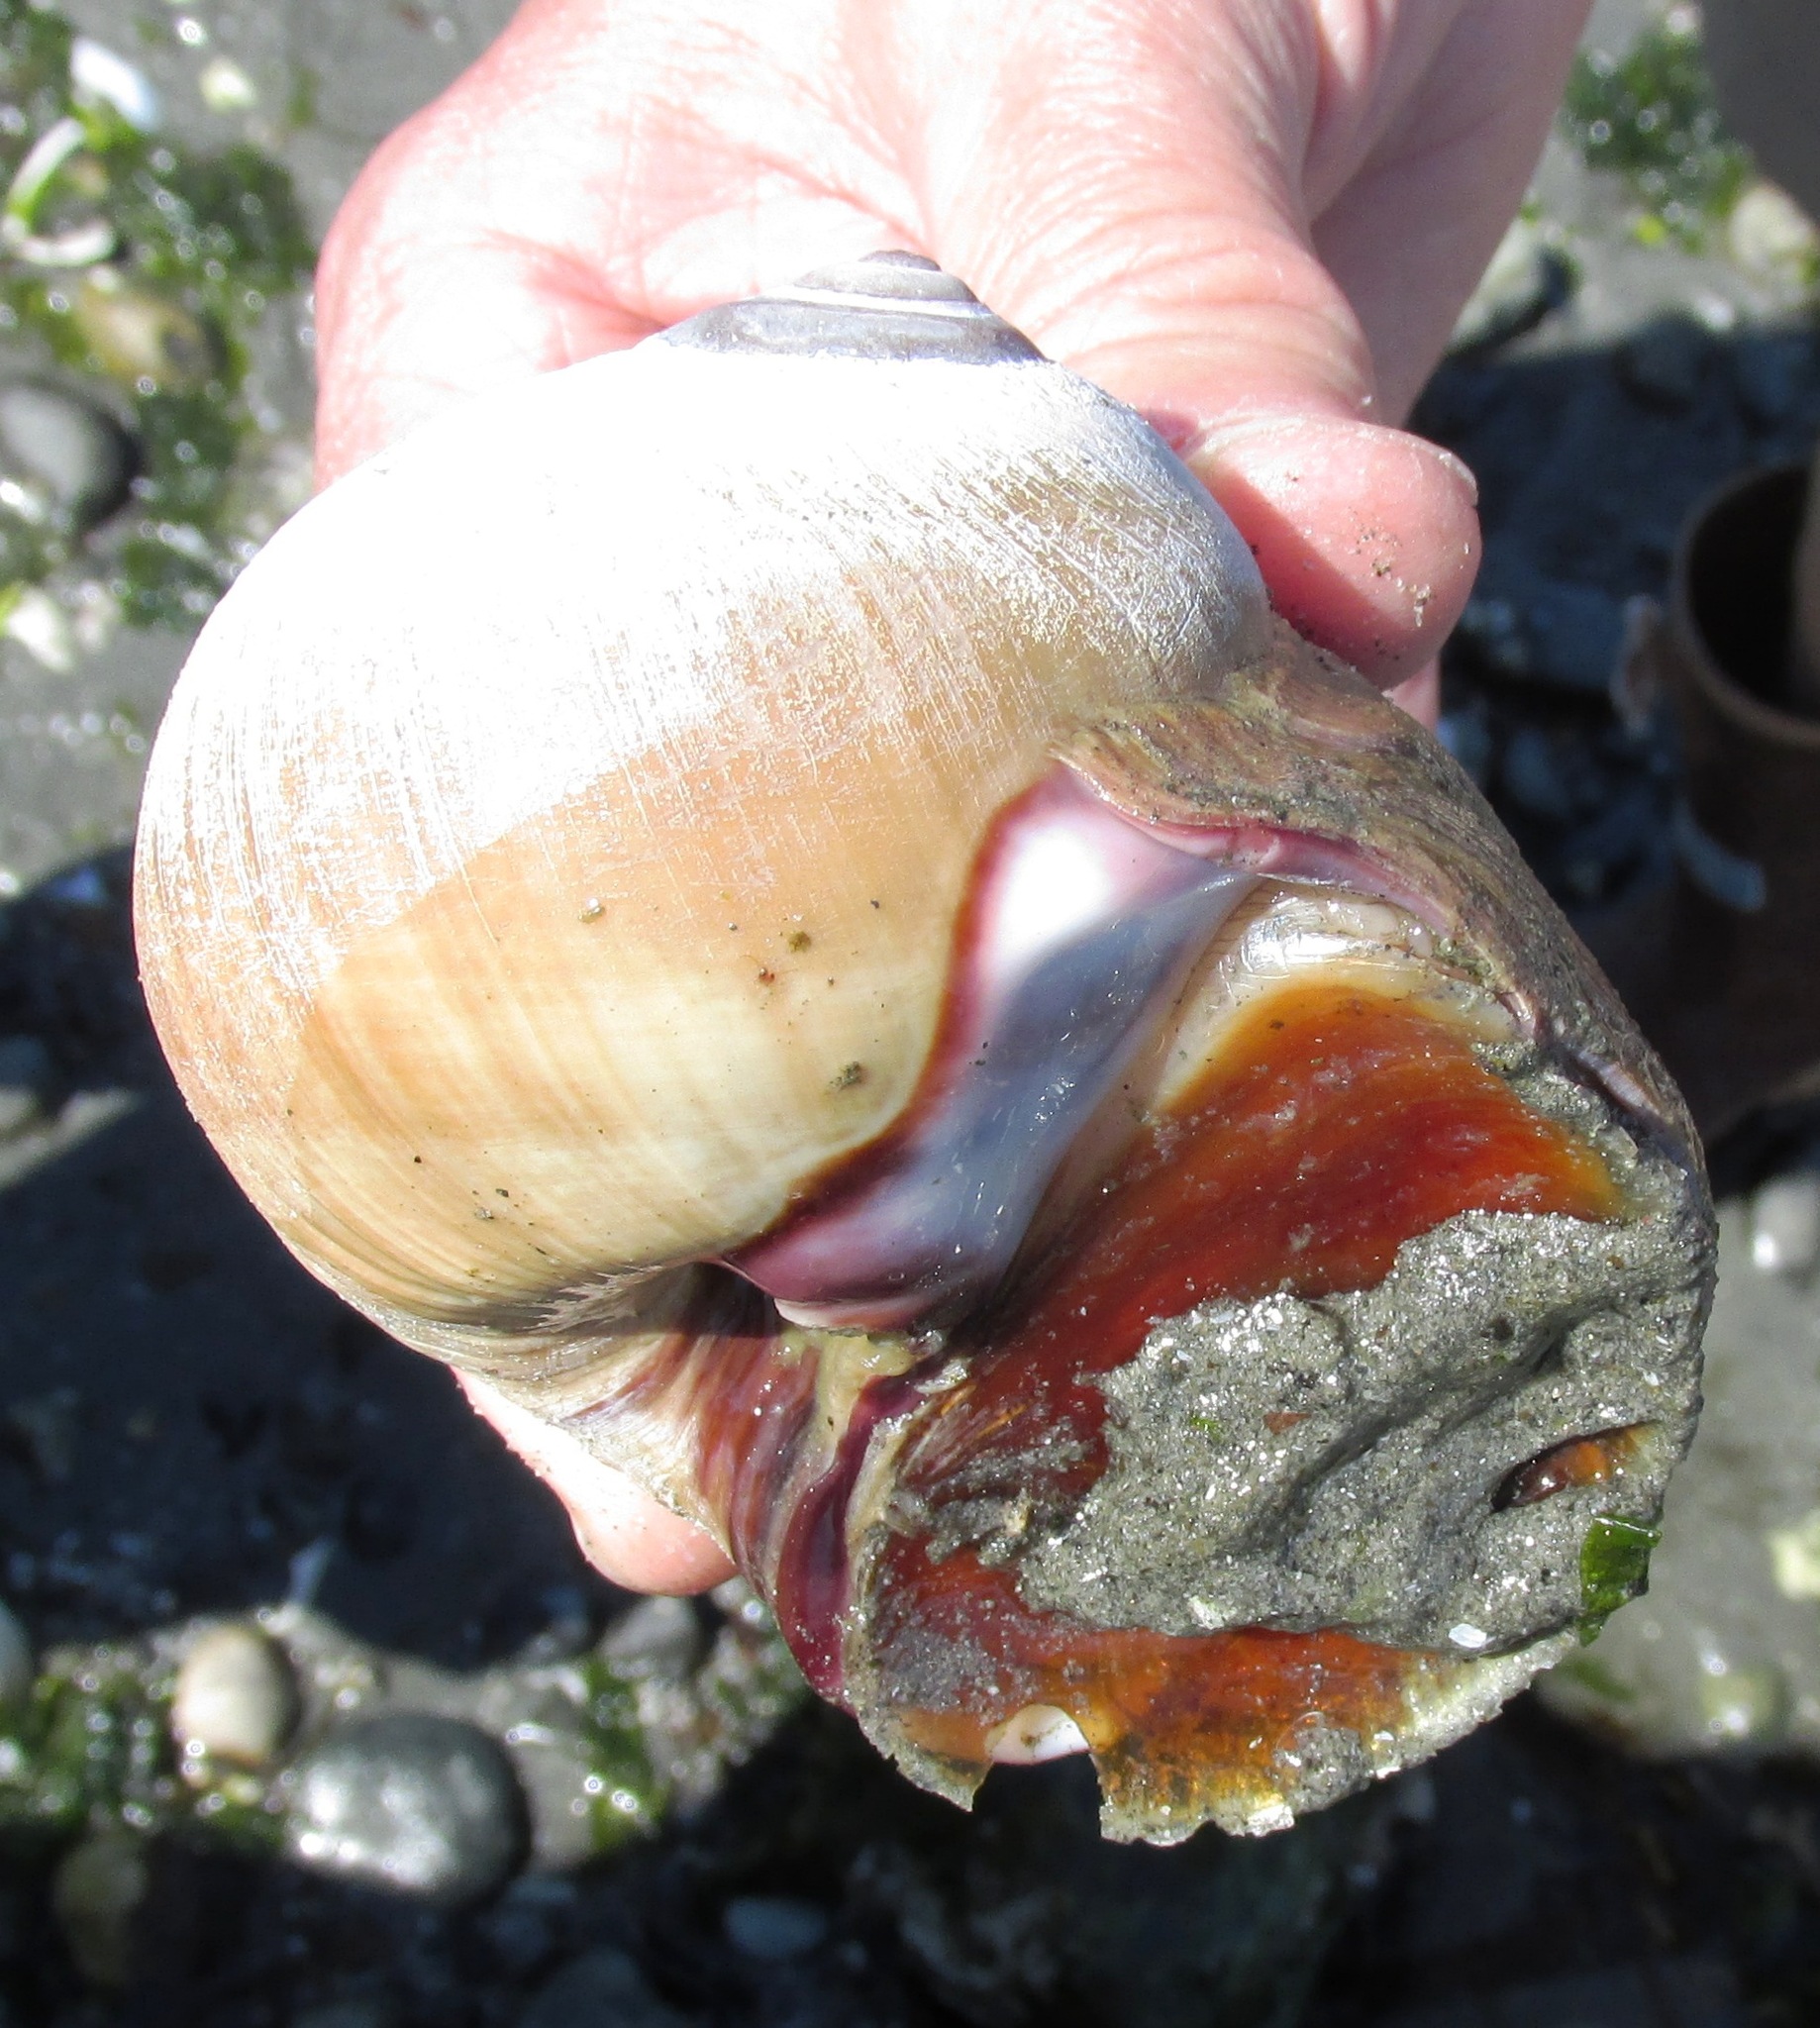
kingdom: Animalia
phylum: Mollusca
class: Gastropoda
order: Littorinimorpha
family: Naticidae
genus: Neverita
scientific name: Neverita lewisii
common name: Lewis' moonsnail
